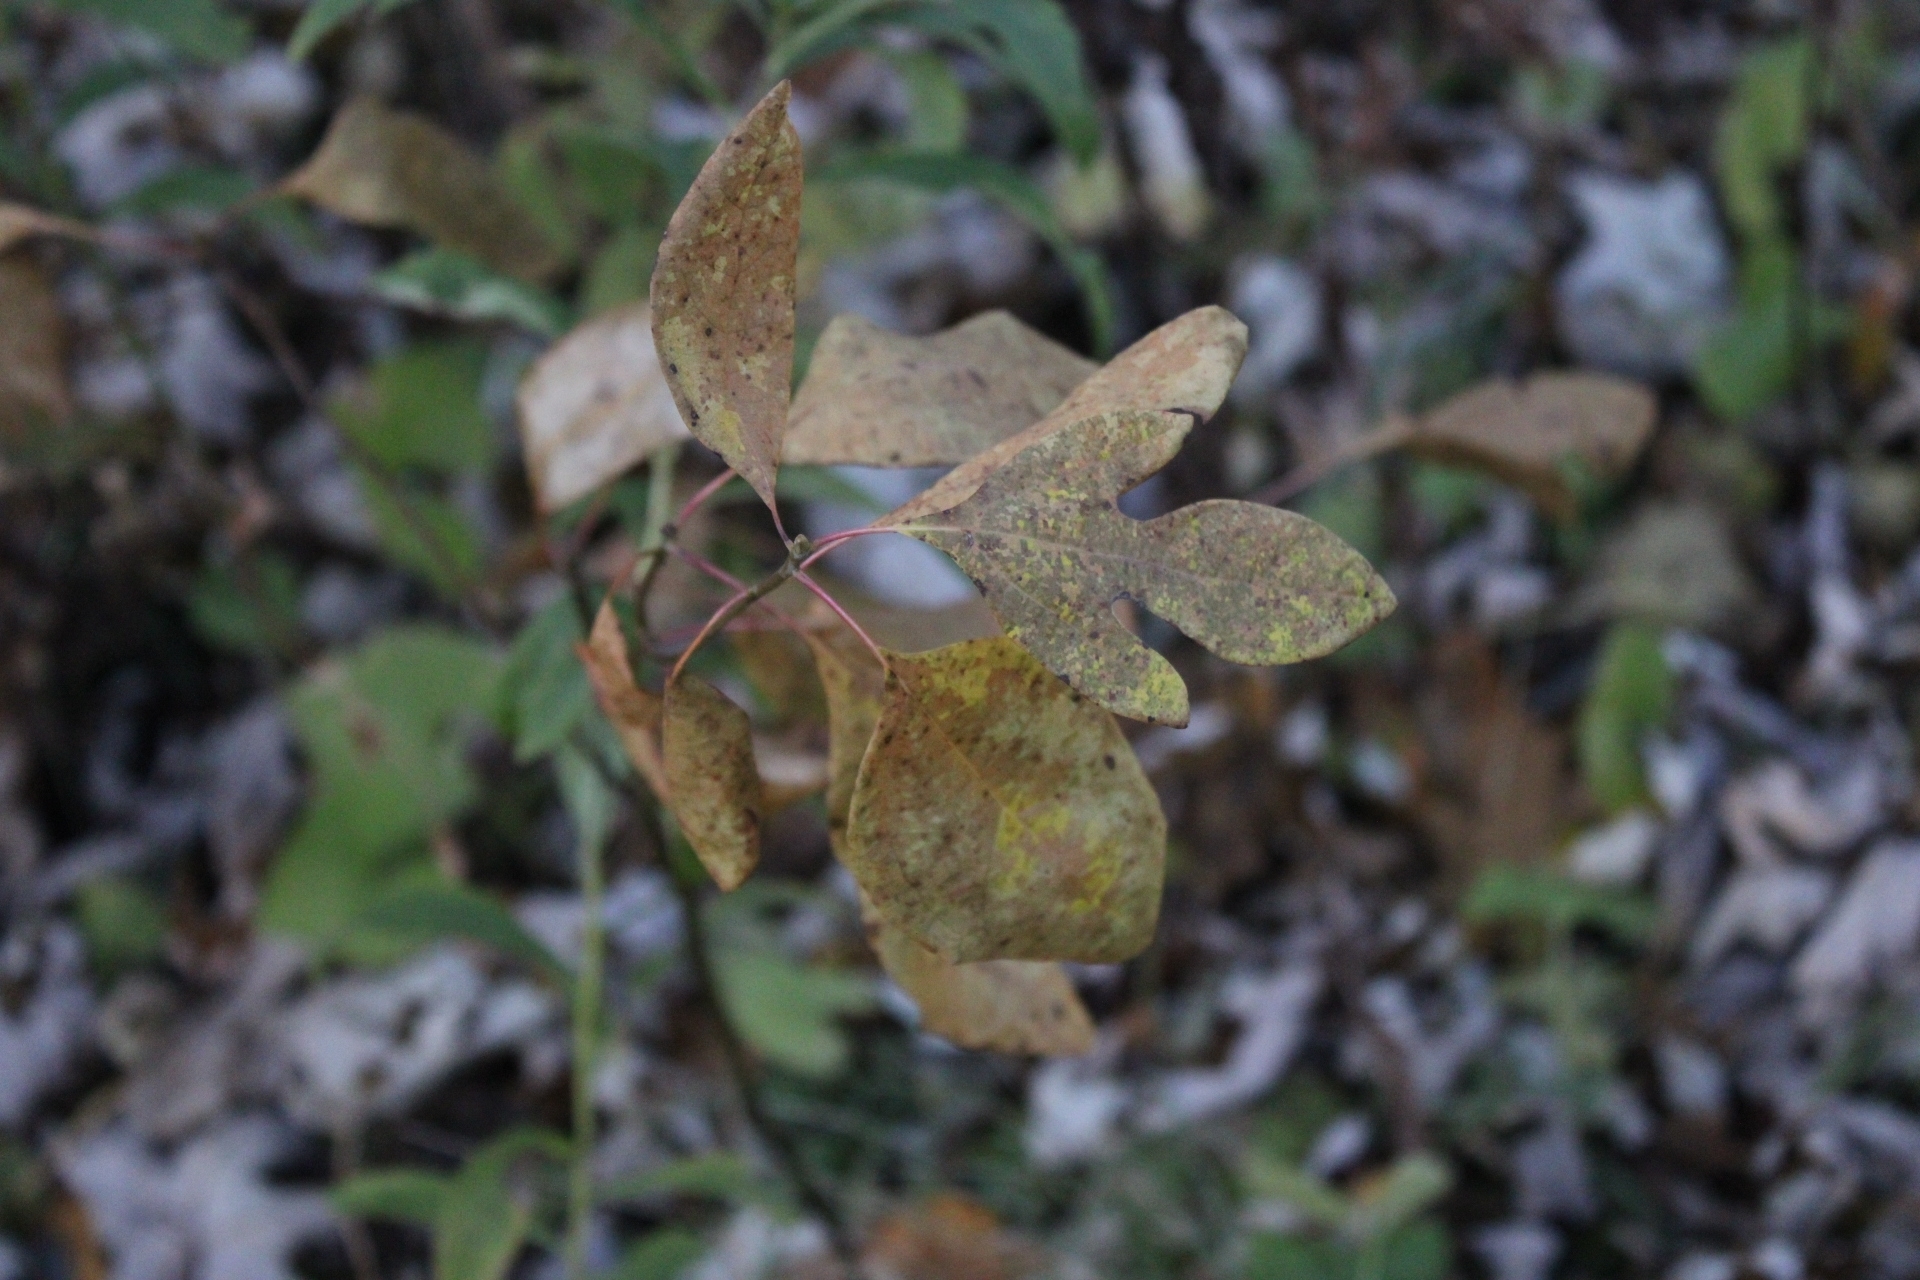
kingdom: Plantae
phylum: Tracheophyta
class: Magnoliopsida
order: Laurales
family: Lauraceae
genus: Sassafras
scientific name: Sassafras albidum
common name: Sassafras
